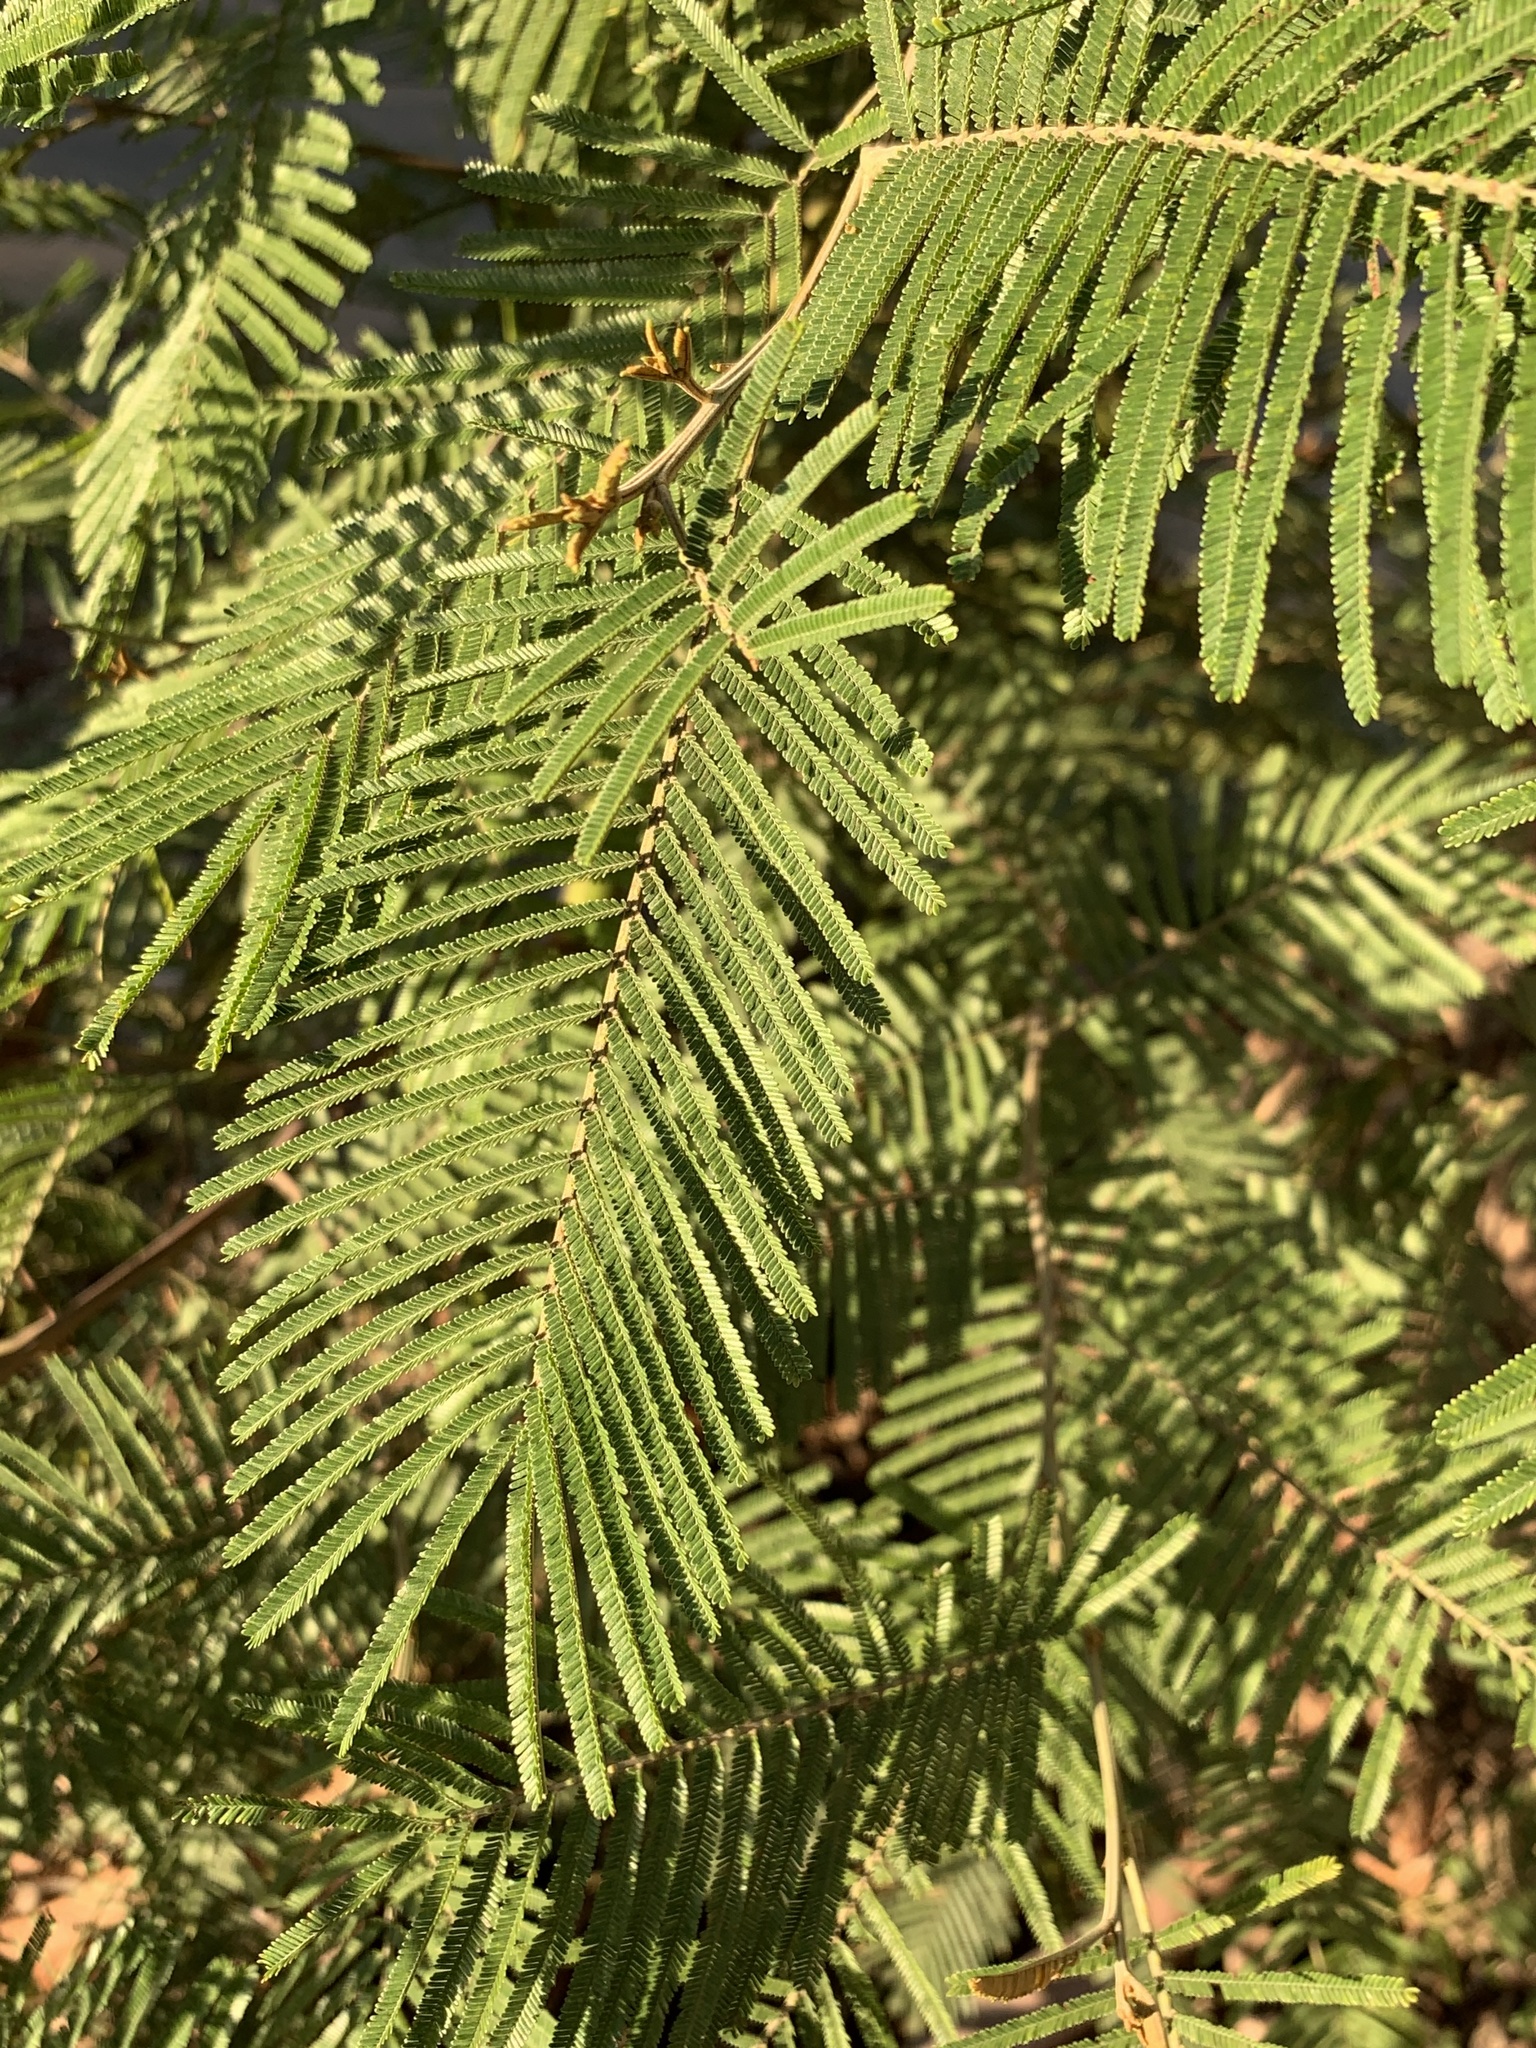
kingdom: Plantae
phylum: Tracheophyta
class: Magnoliopsida
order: Fabales
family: Fabaceae
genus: Acacia
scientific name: Acacia mearnsii
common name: Black wattle
